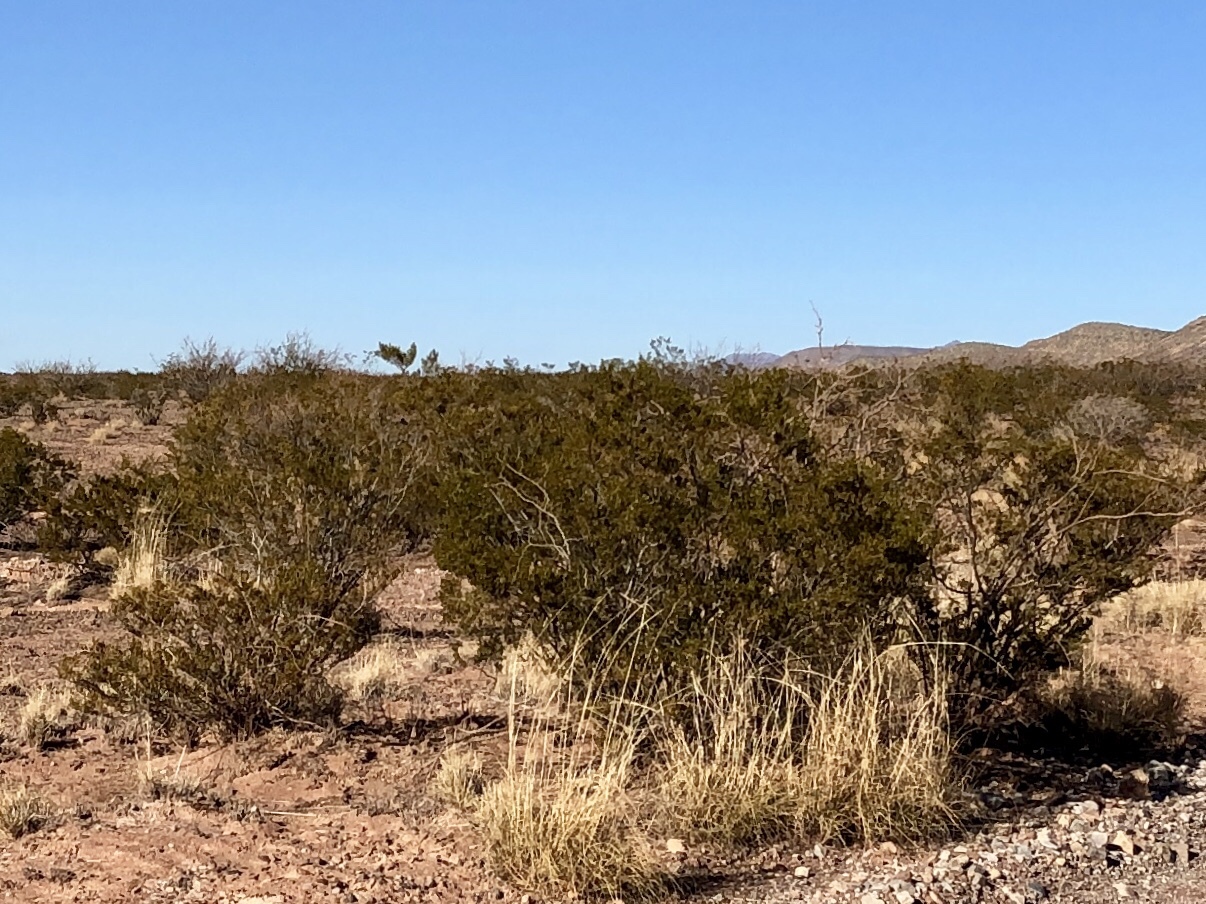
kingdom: Plantae
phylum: Tracheophyta
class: Magnoliopsida
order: Zygophyllales
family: Zygophyllaceae
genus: Larrea
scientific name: Larrea tridentata
